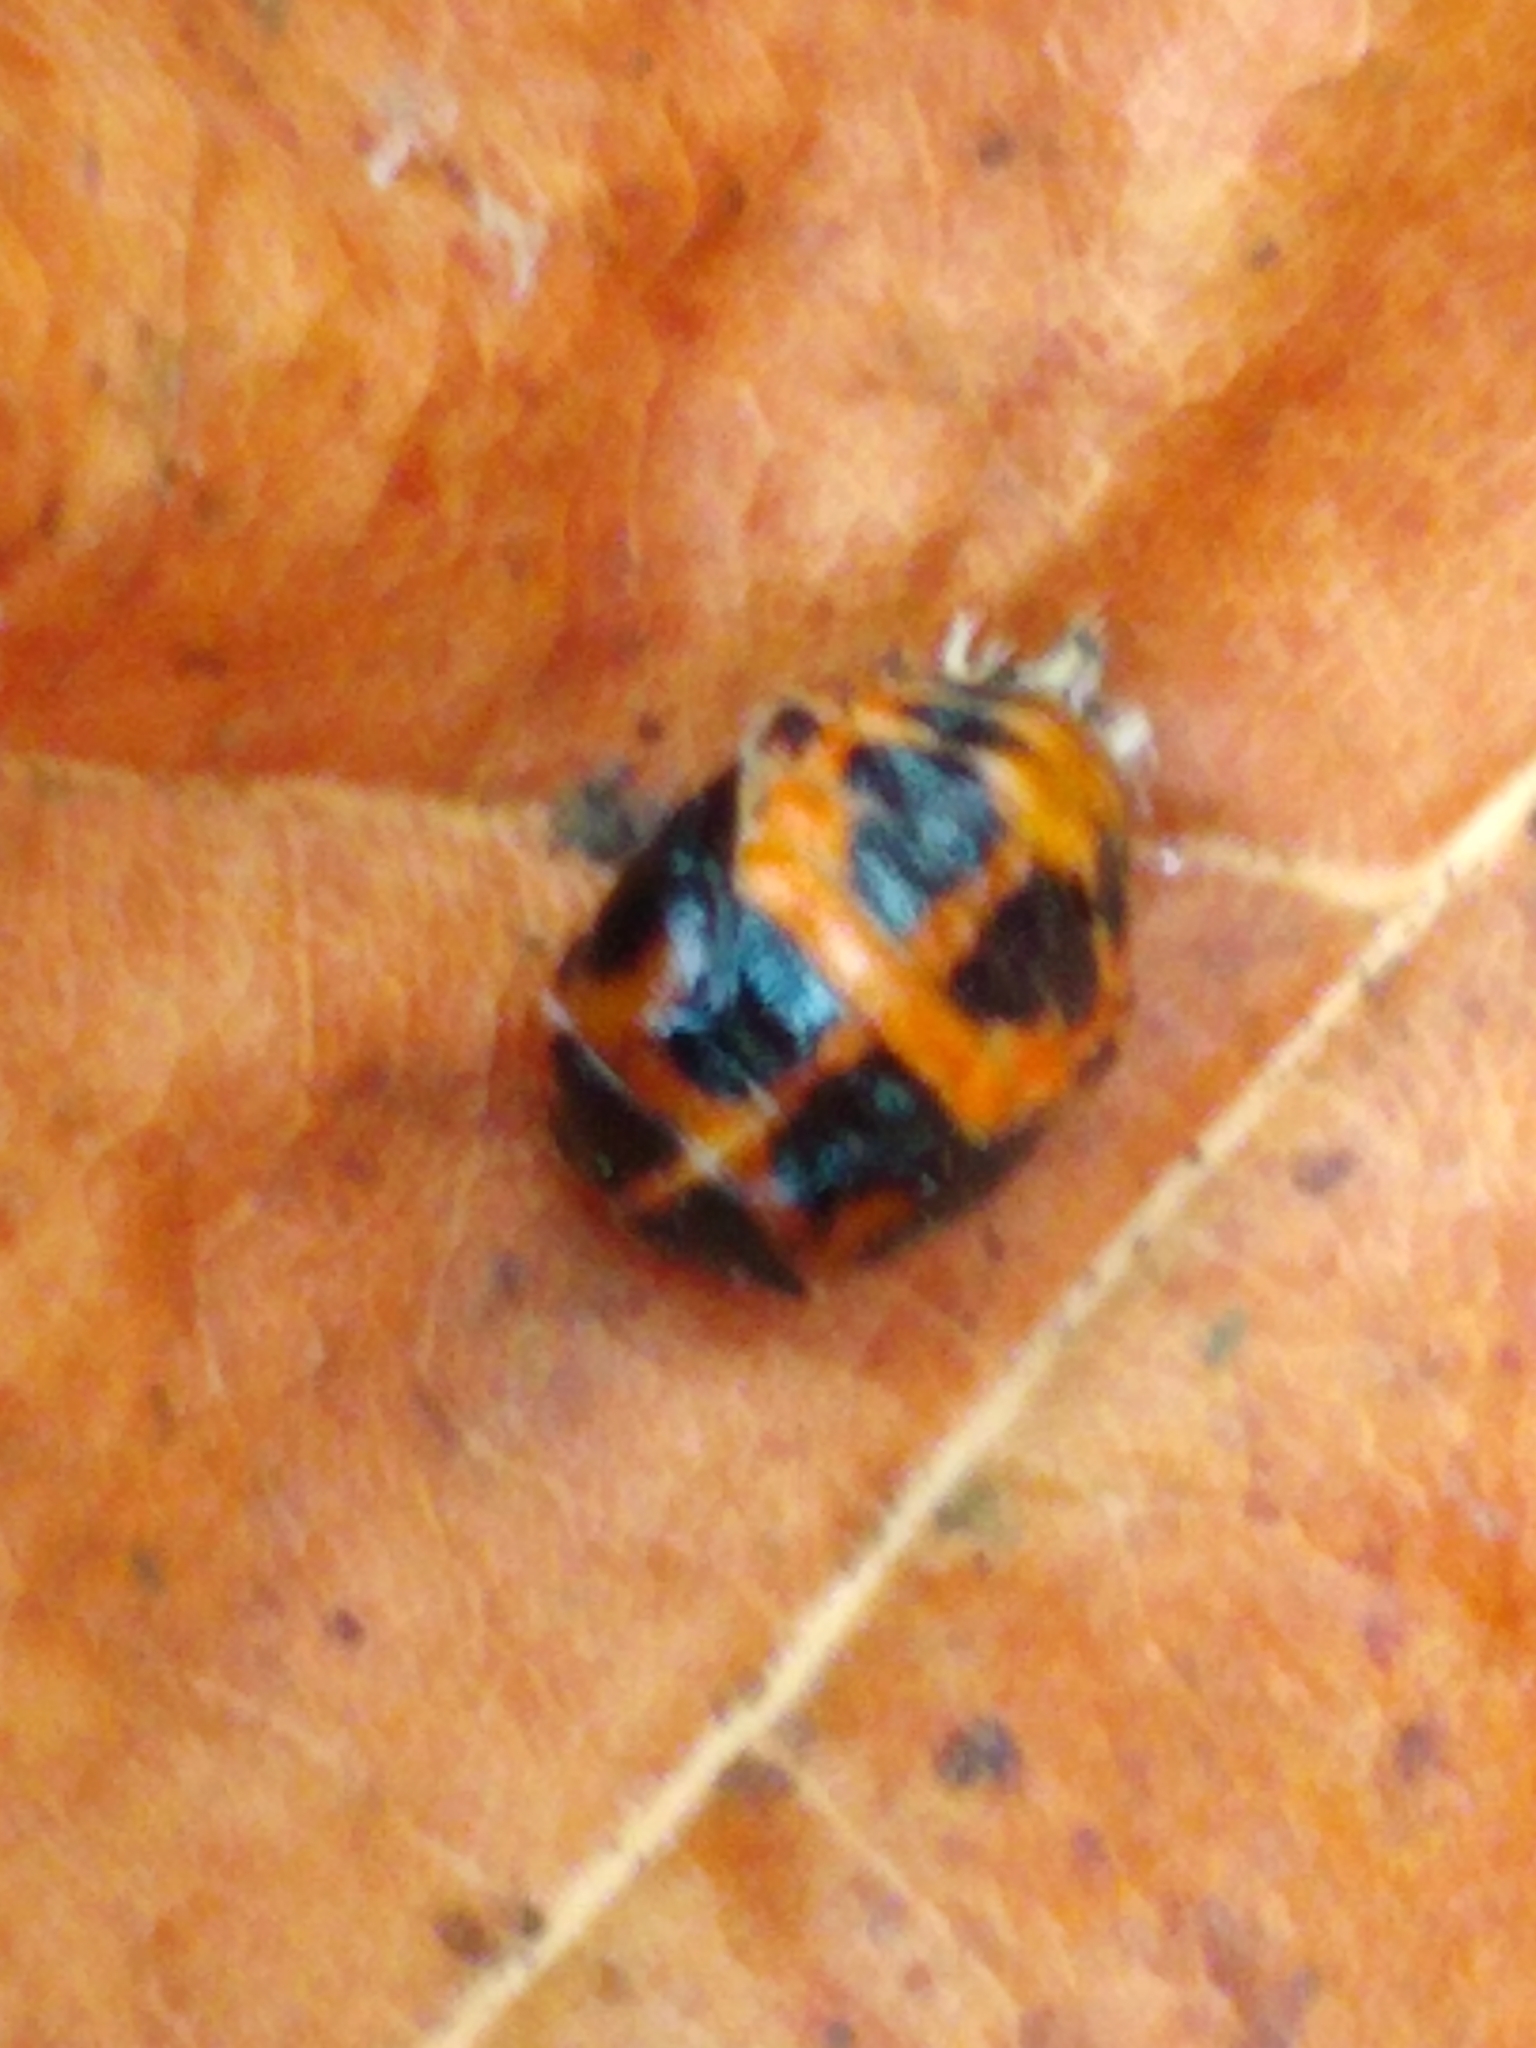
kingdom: Animalia
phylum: Arthropoda
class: Insecta
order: Coleoptera
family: Coccinellidae
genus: Harmonia
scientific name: Harmonia axyridis
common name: Harlequin ladybird
